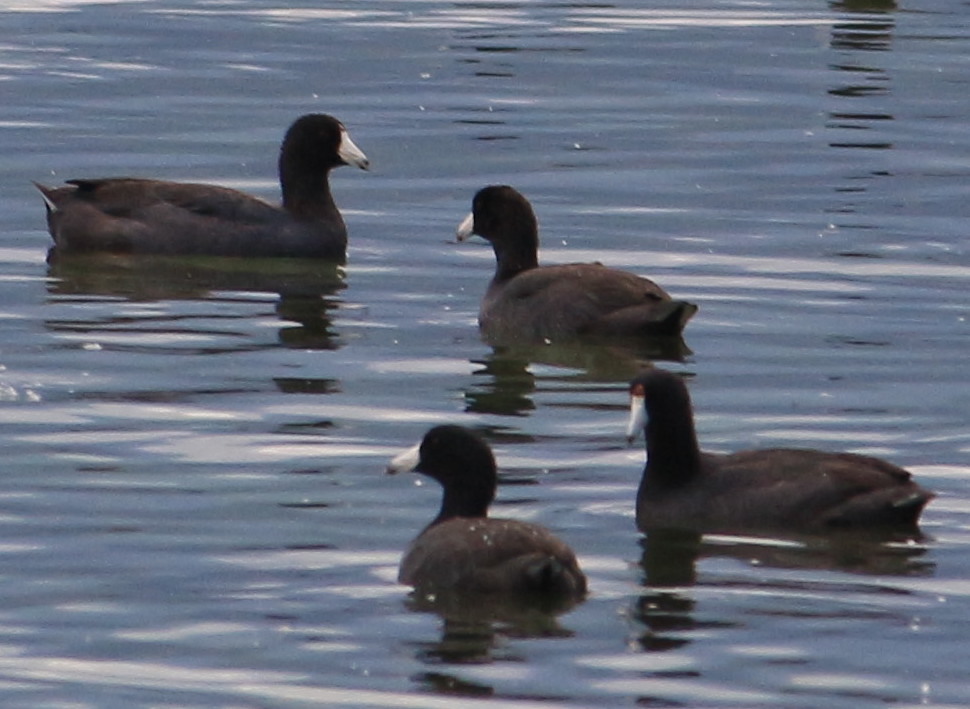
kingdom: Animalia
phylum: Chordata
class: Aves
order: Gruiformes
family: Rallidae
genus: Fulica
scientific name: Fulica americana
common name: American coot
